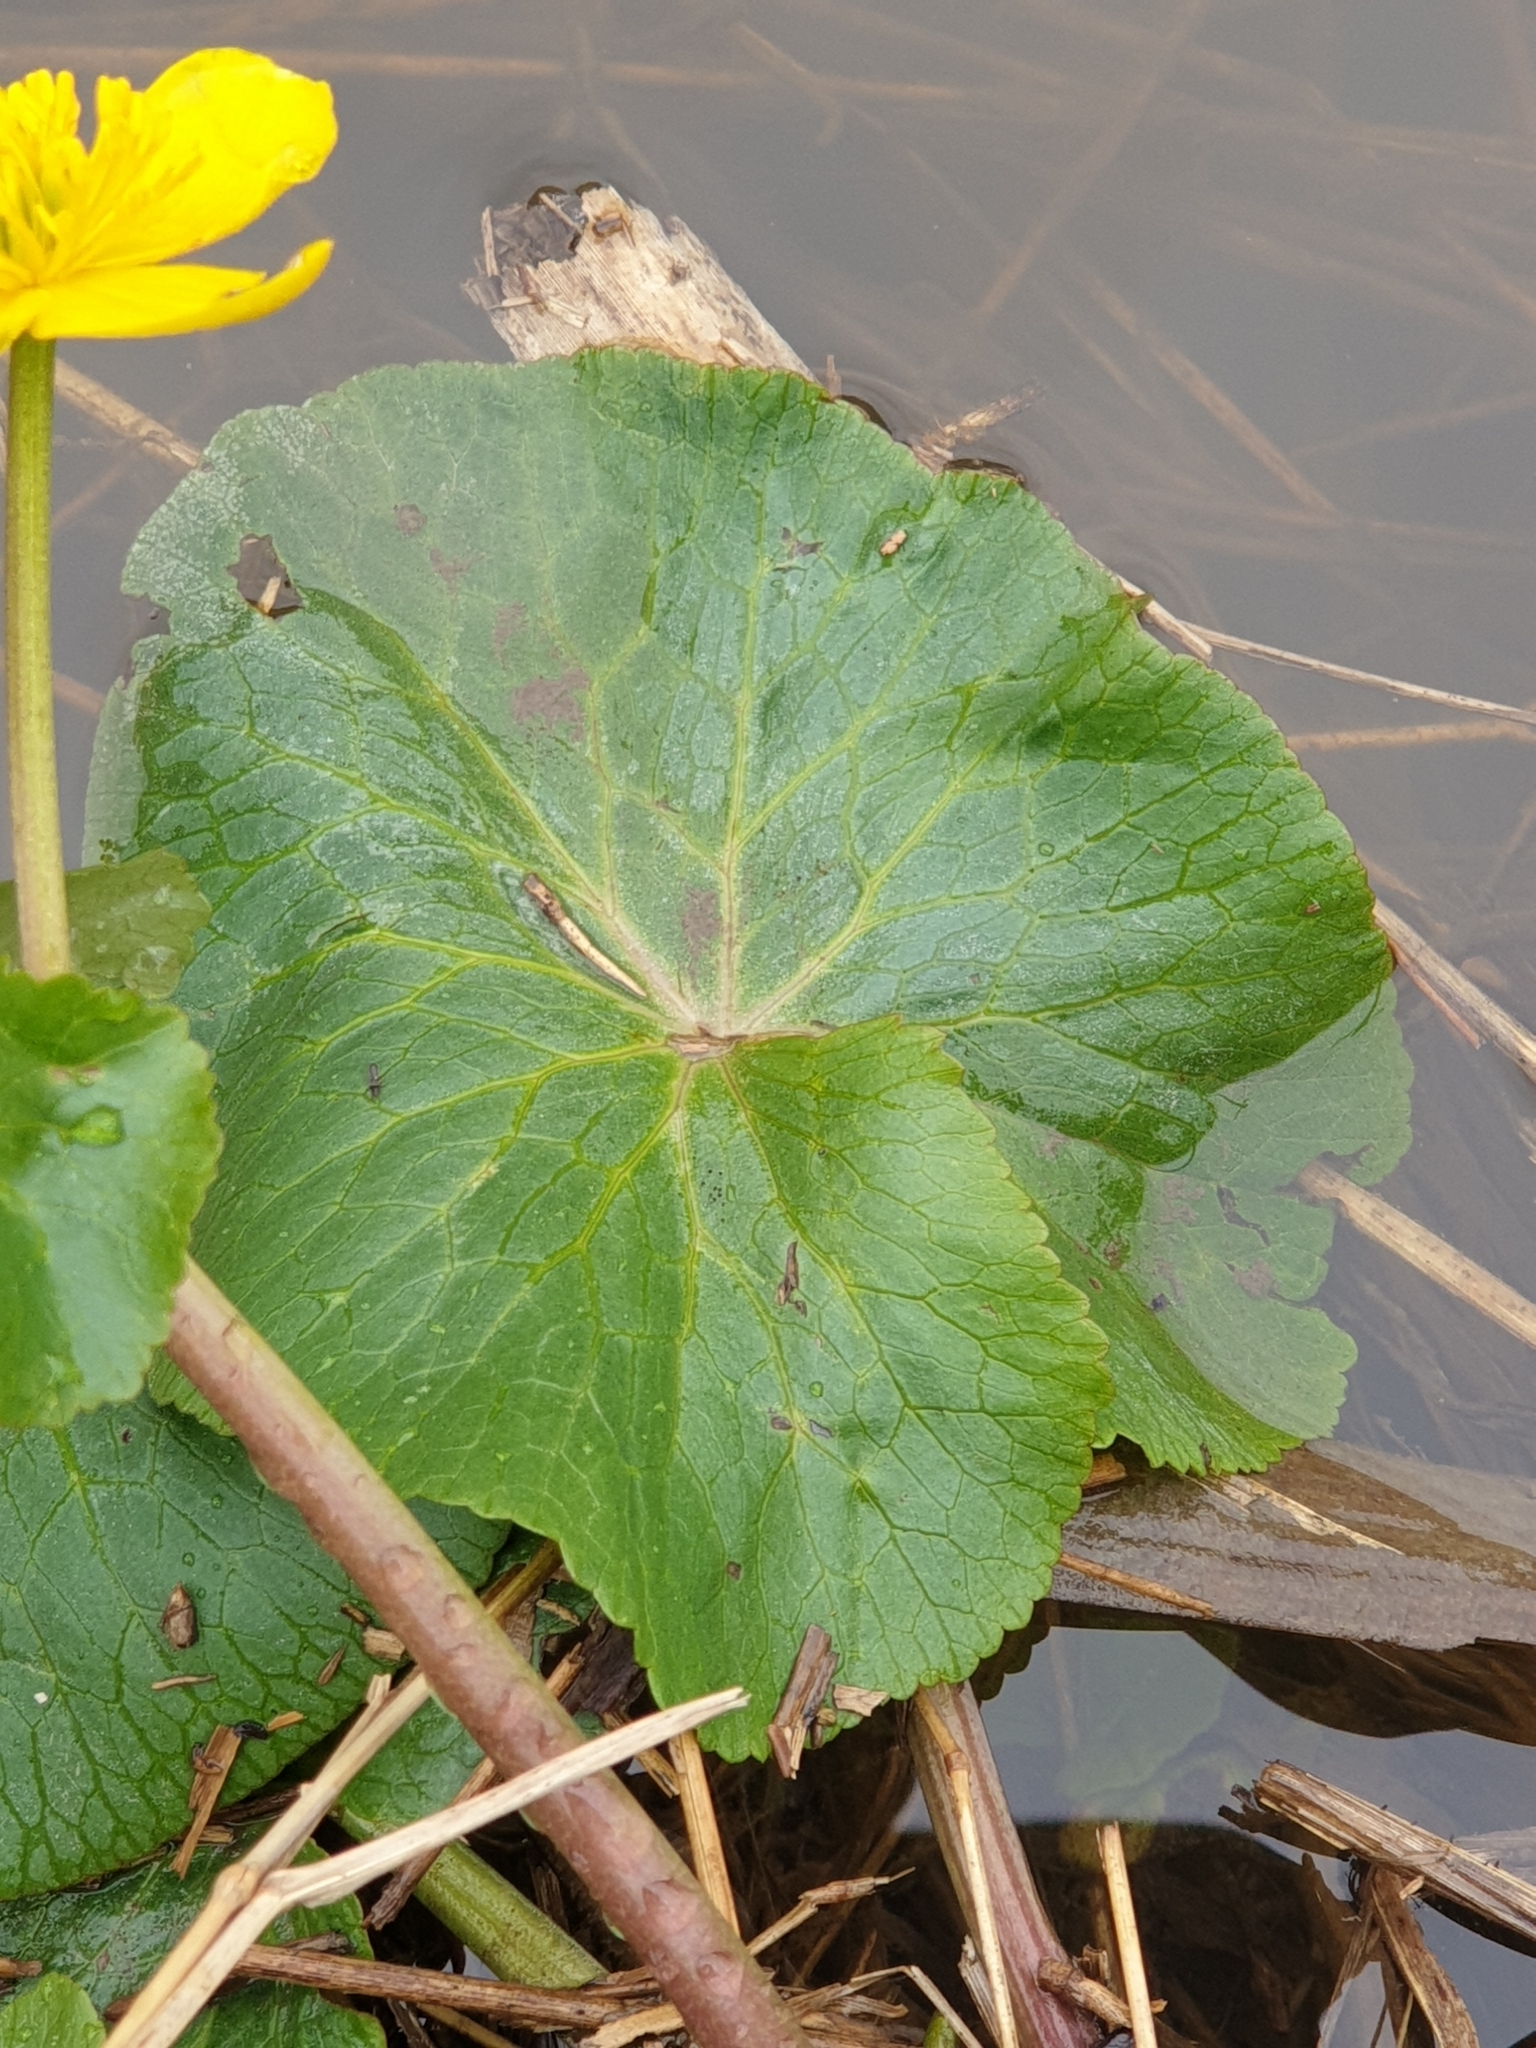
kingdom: Plantae
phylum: Tracheophyta
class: Magnoliopsida
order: Ranunculales
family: Ranunculaceae
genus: Caltha
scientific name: Caltha palustris
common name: Marsh marigold
